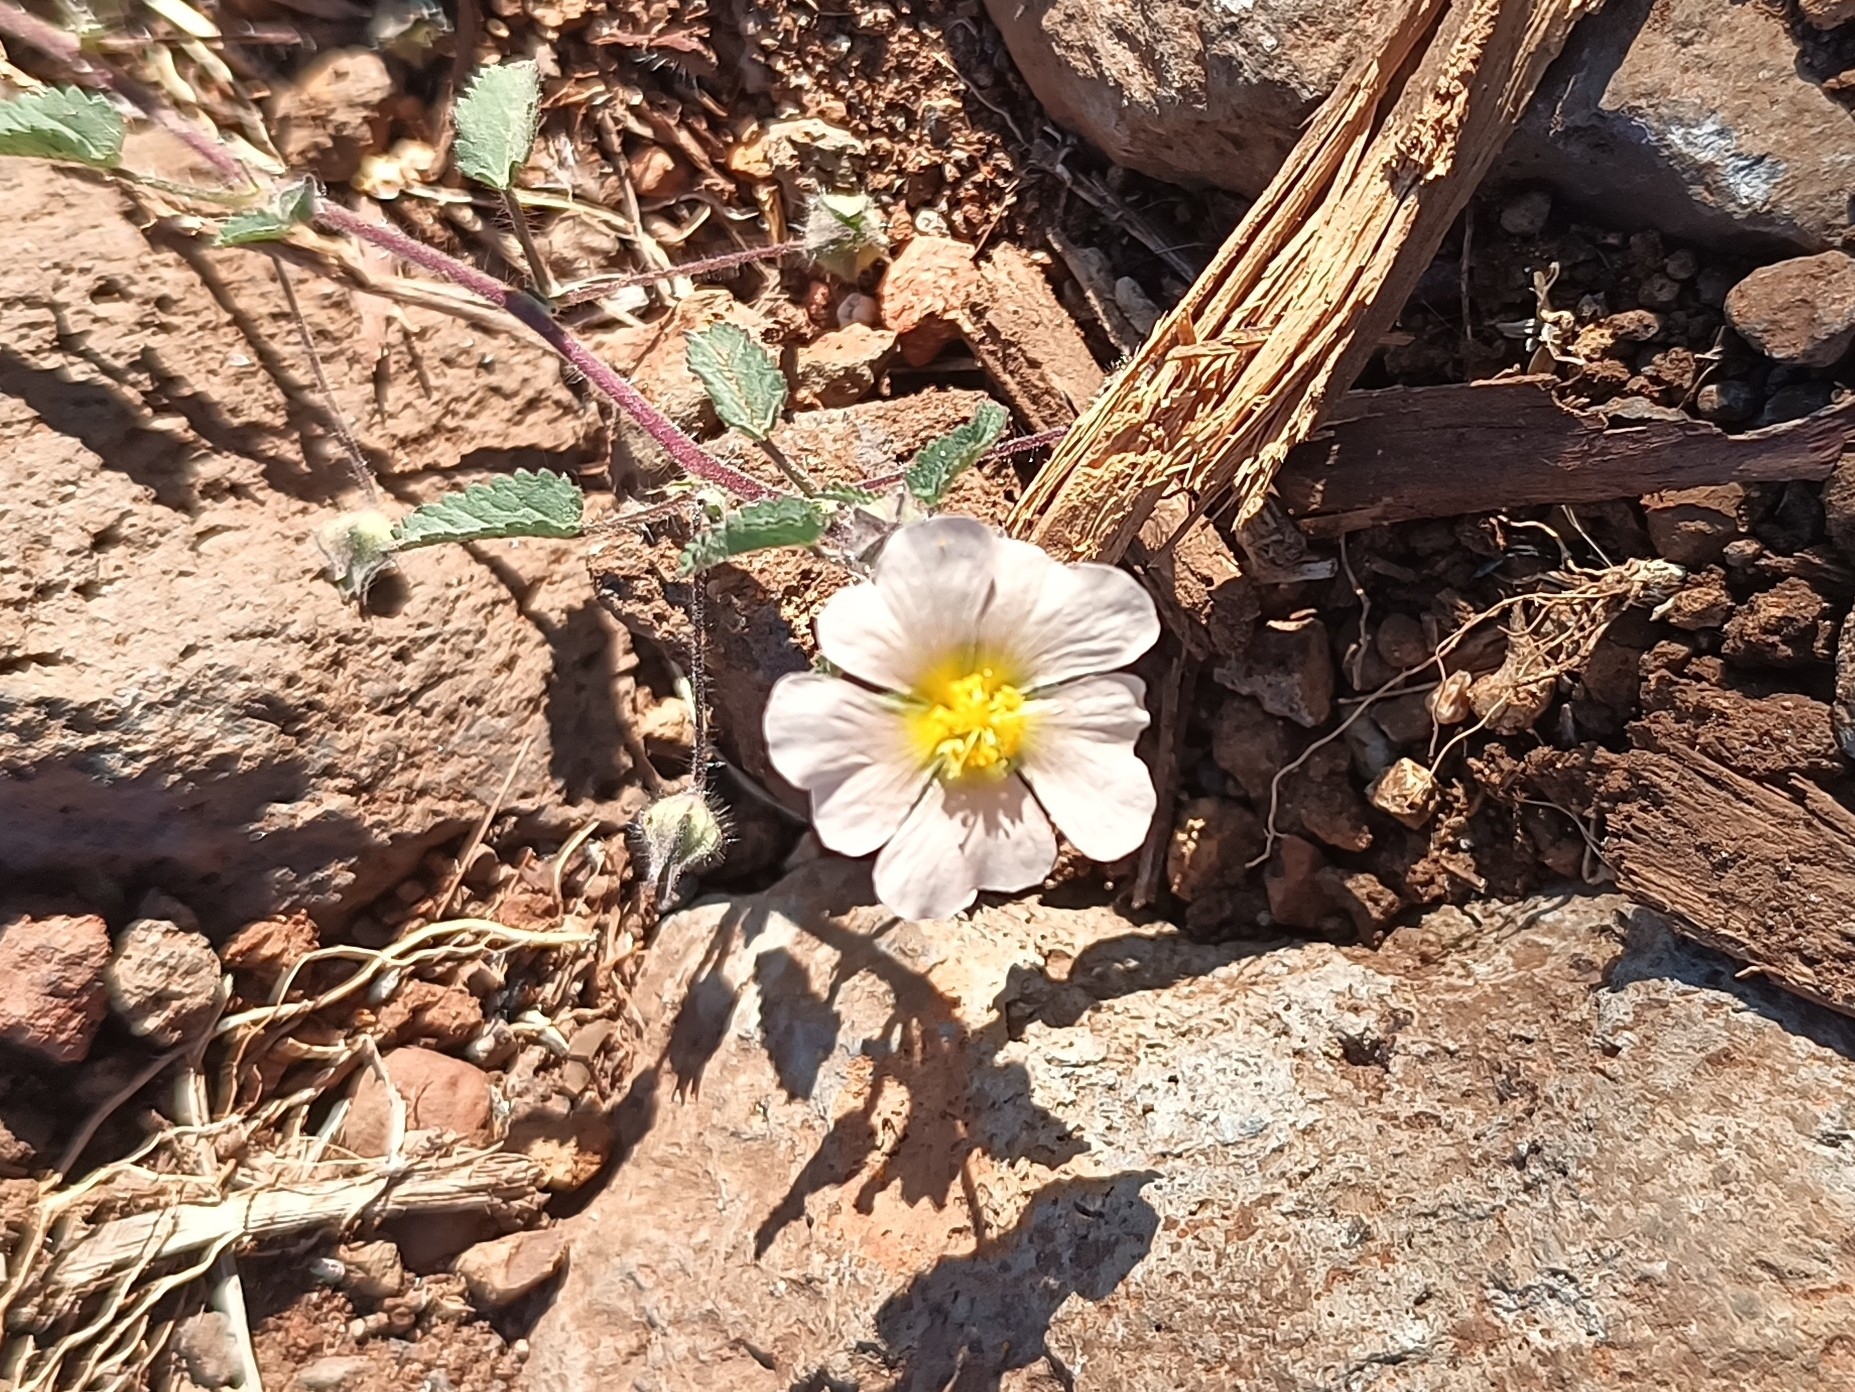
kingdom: Plantae
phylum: Tracheophyta
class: Magnoliopsida
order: Malvales
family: Malvaceae
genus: Sida
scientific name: Sida abutilifolia
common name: Spreading fanpetals
